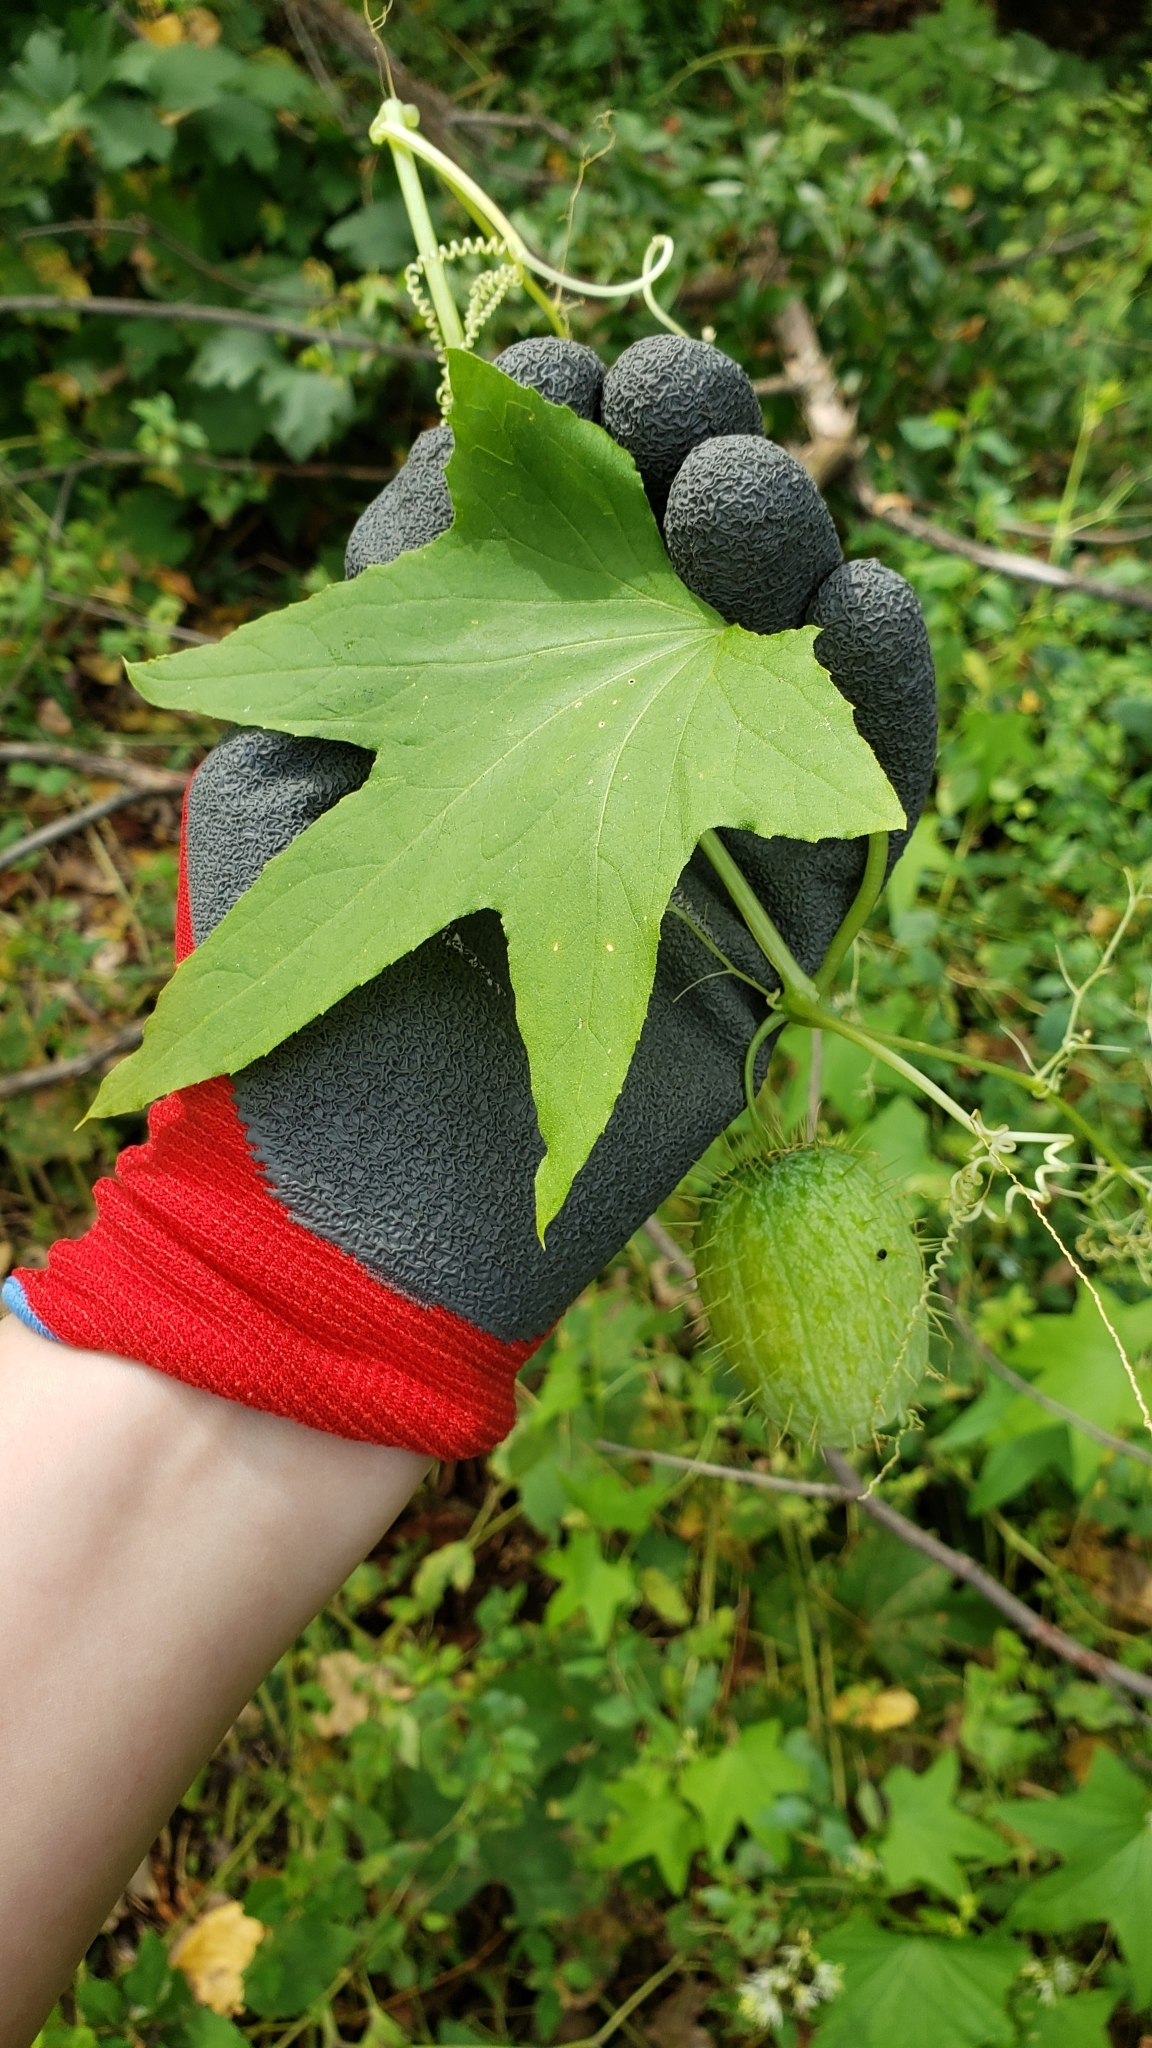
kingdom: Plantae
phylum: Tracheophyta
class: Magnoliopsida
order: Cucurbitales
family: Cucurbitaceae
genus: Echinocystis
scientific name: Echinocystis lobata
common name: Wild cucumber
